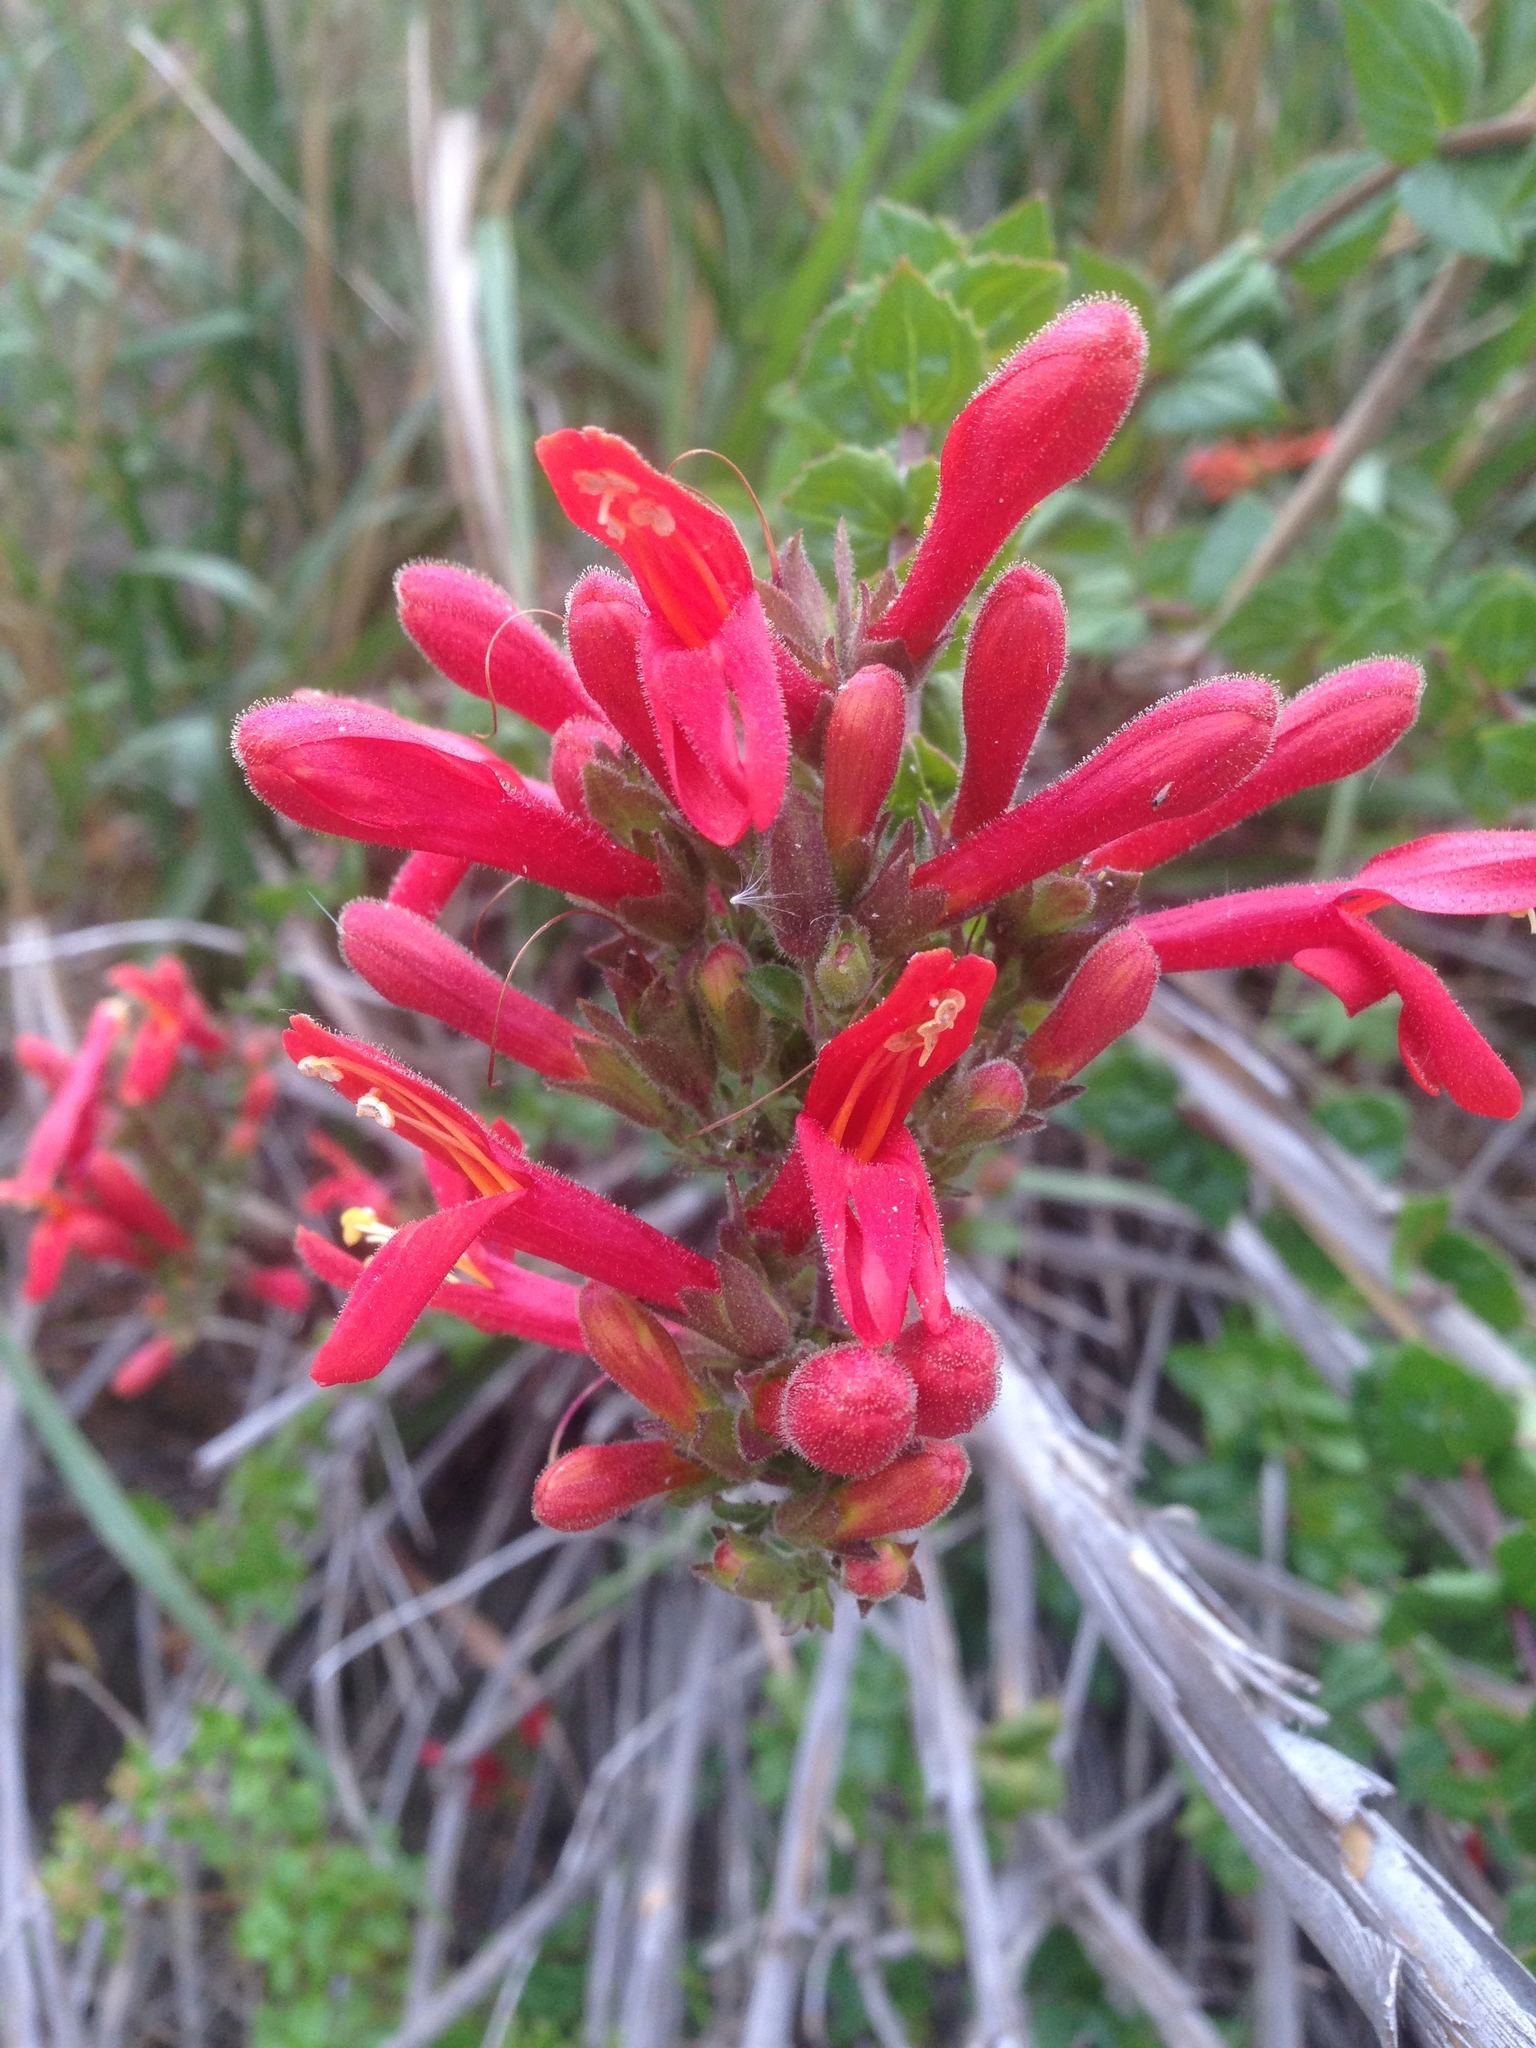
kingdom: Plantae
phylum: Tracheophyta
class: Magnoliopsida
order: Lamiales
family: Plantaginaceae
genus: Keckiella
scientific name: Keckiella cordifolia
